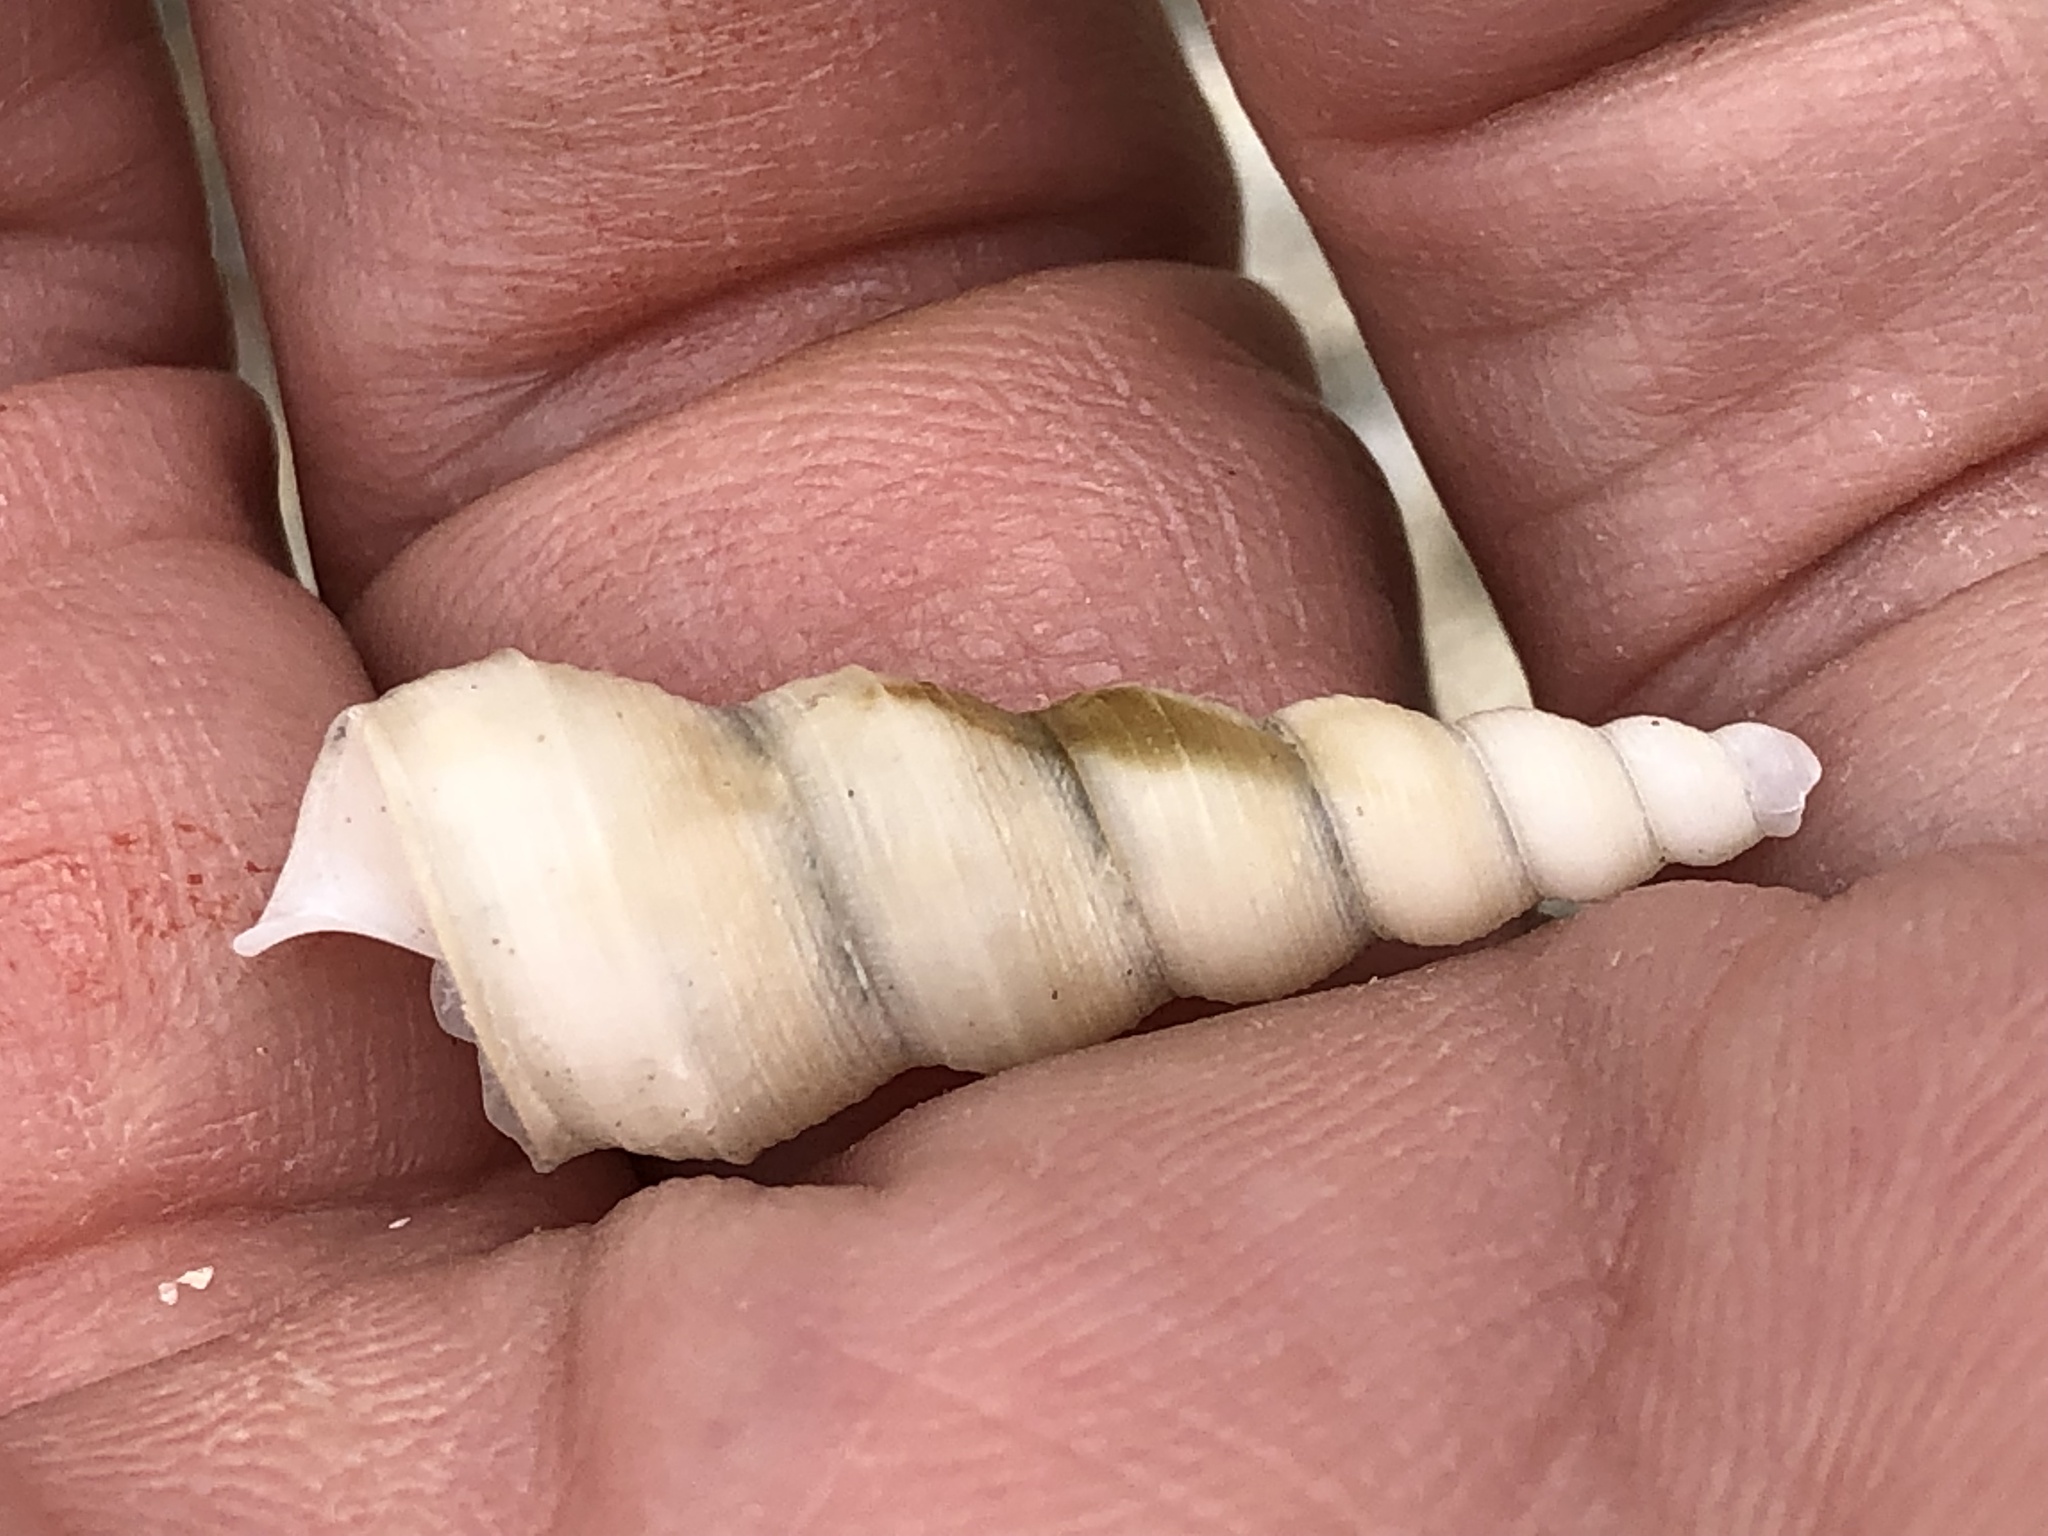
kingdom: Animalia
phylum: Mollusca
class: Gastropoda
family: Turritellidae
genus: Turritella
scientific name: Turritella duplicata
